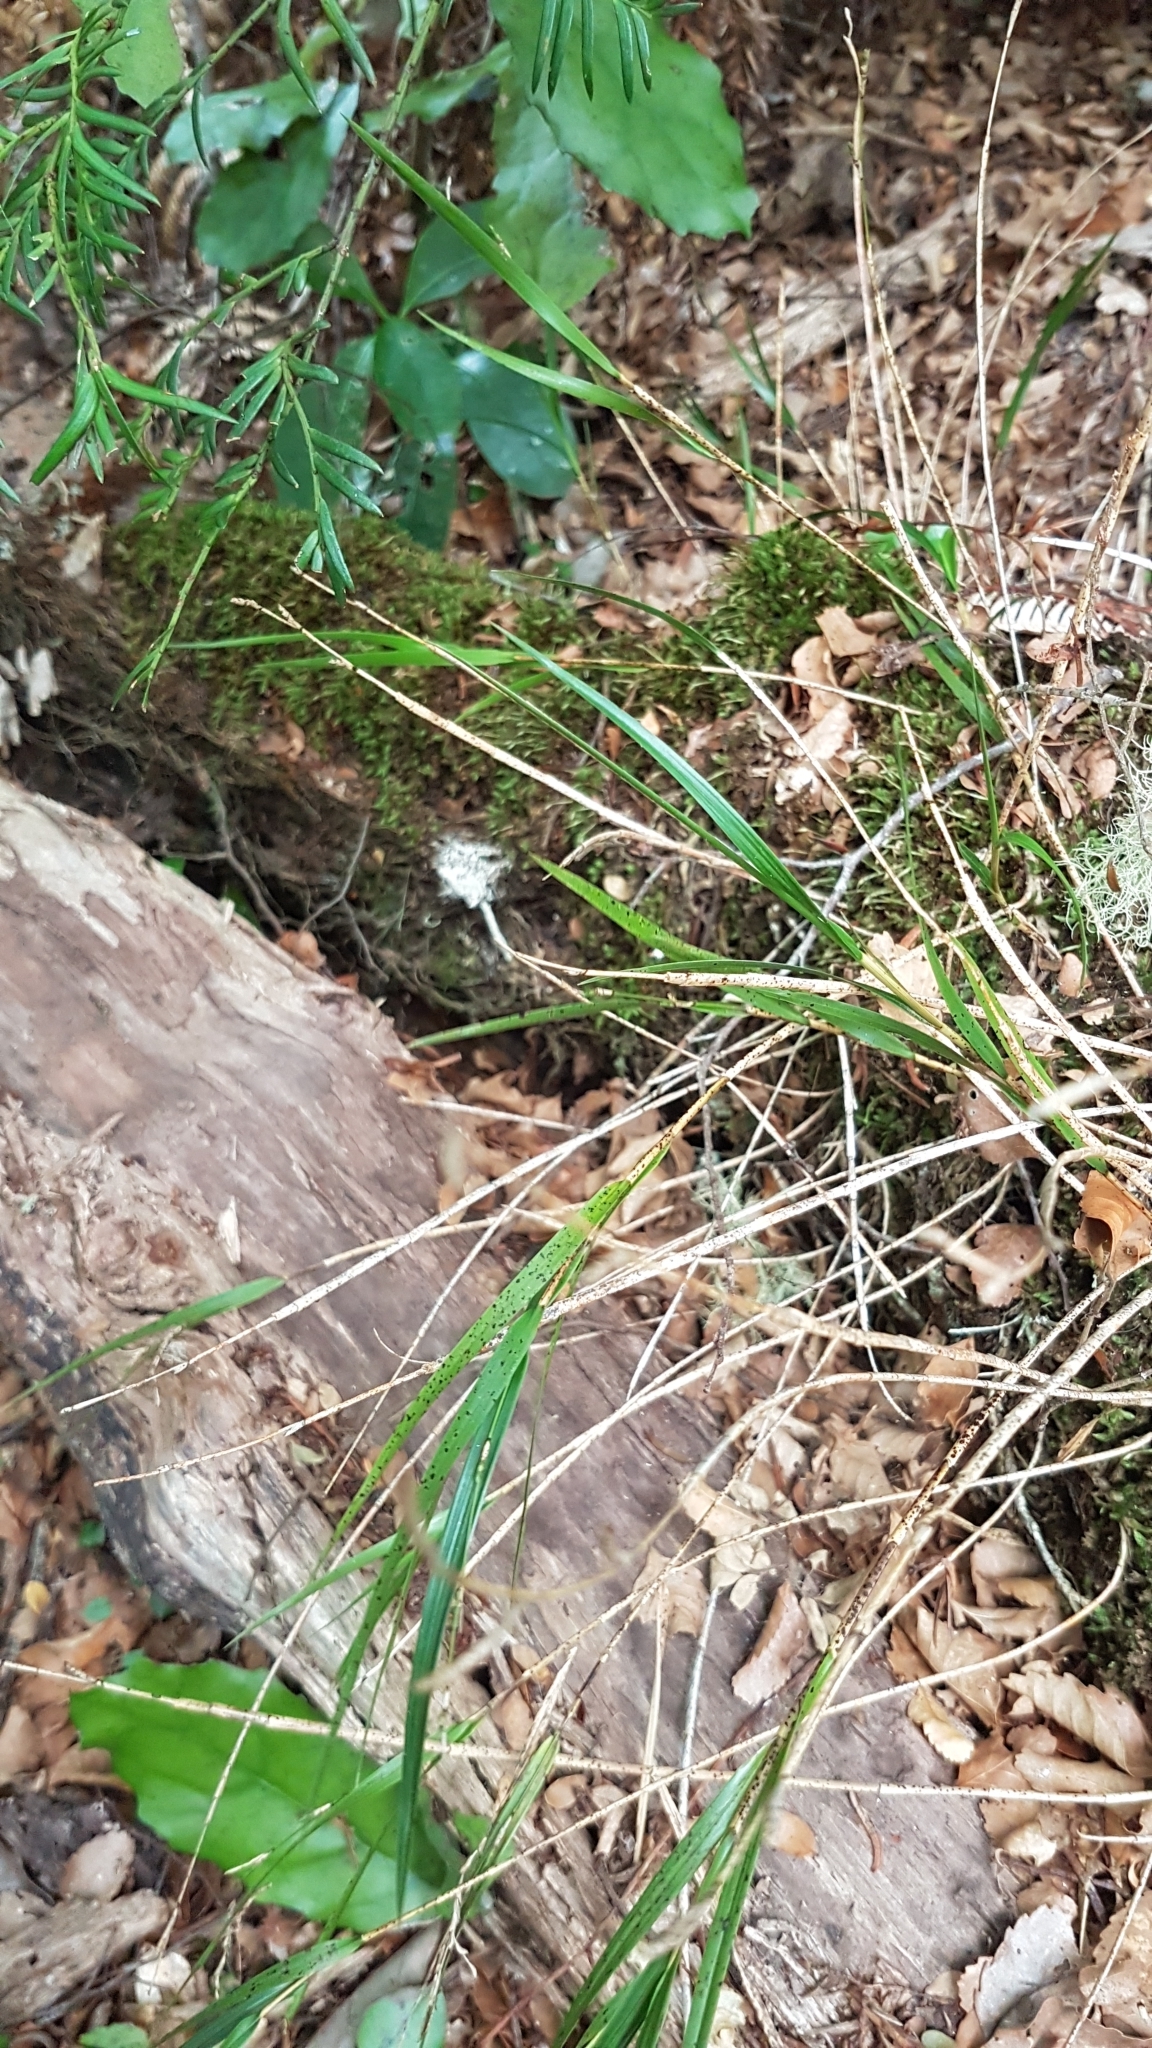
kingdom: Plantae
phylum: Tracheophyta
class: Liliopsida
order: Asparagales
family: Orchidaceae
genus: Earina
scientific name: Earina mucronata
